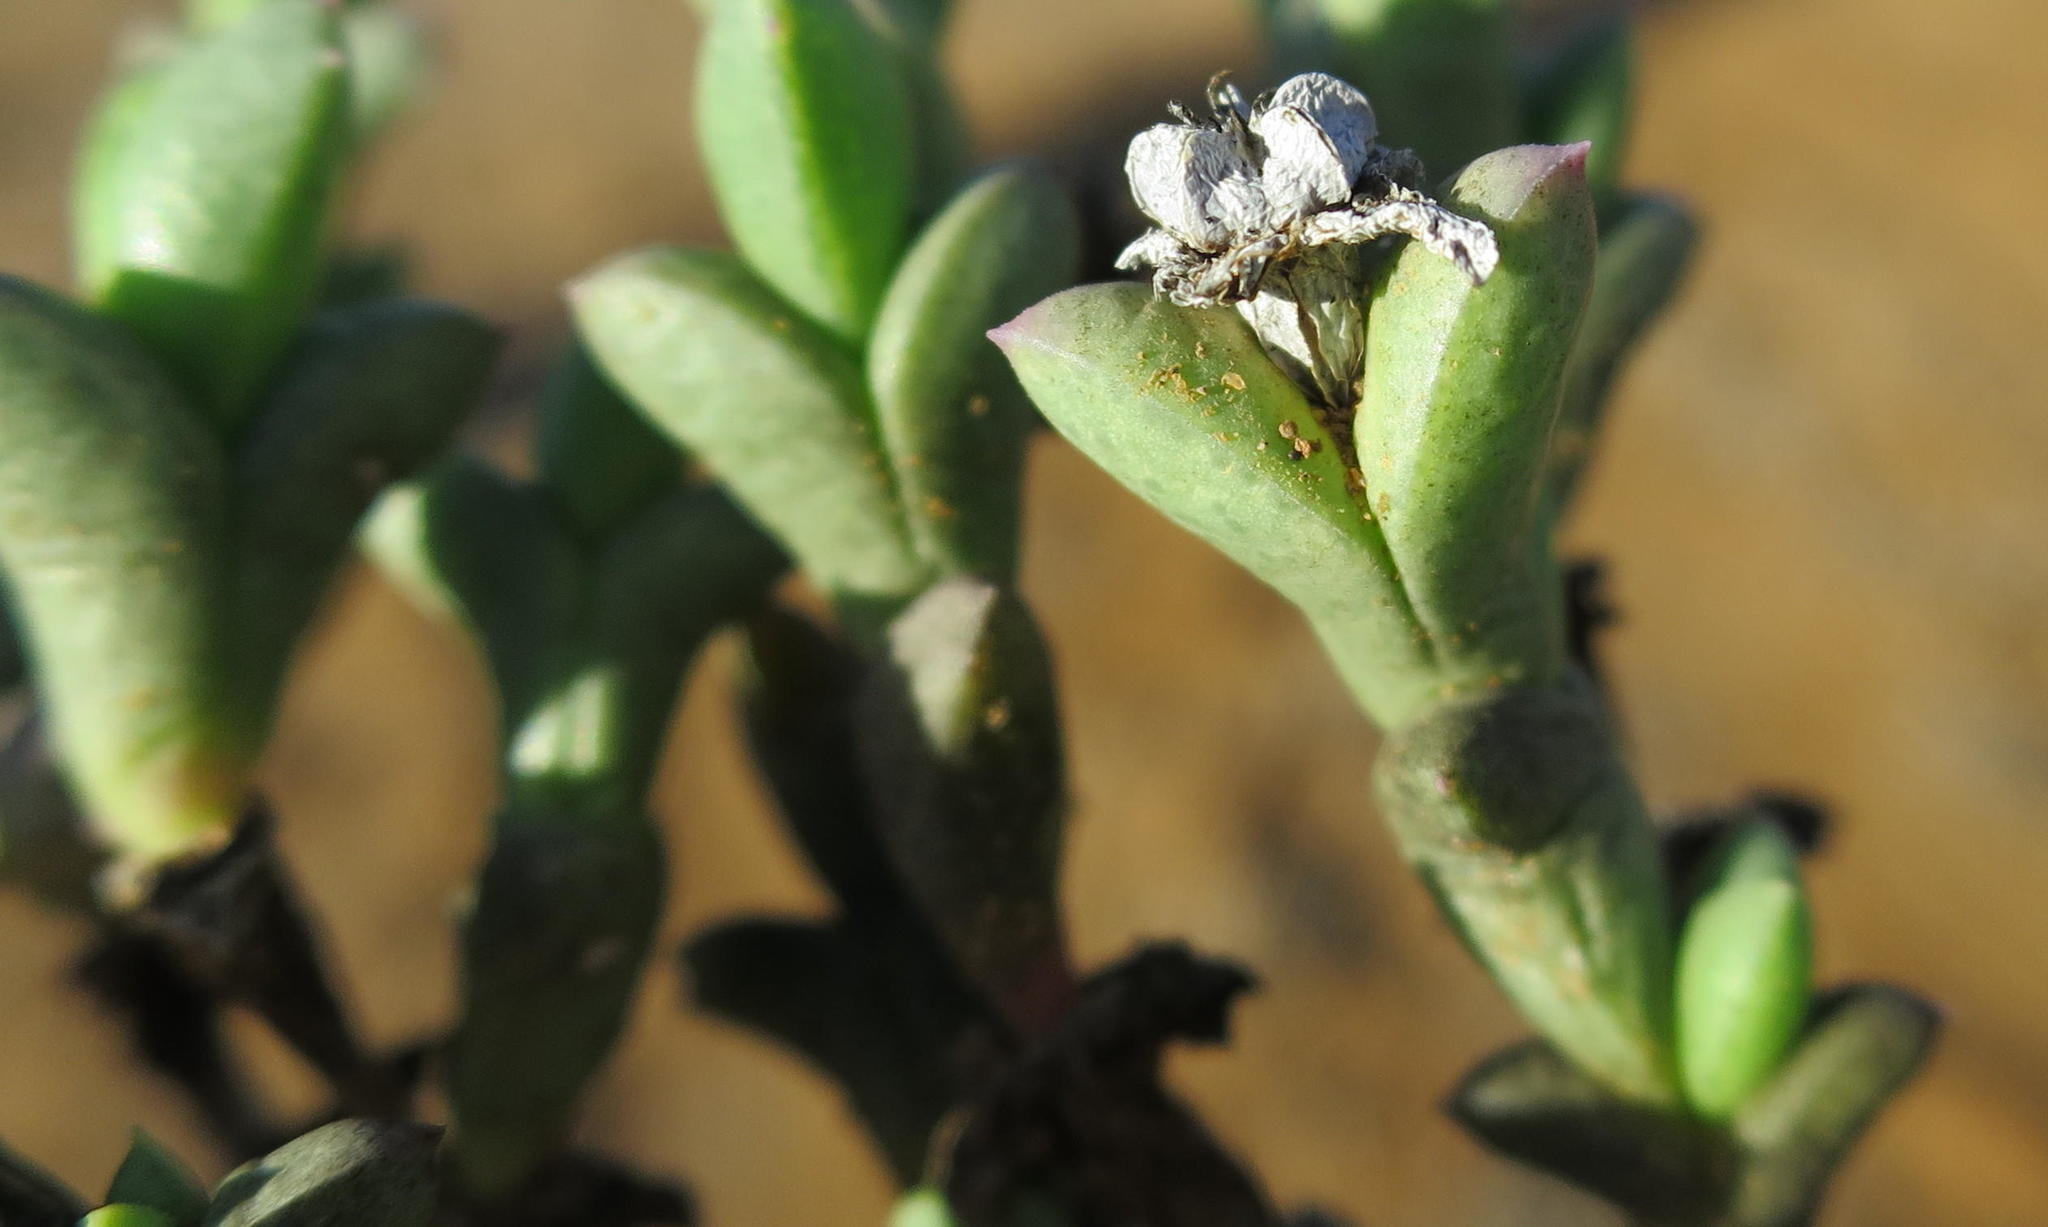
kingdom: Plantae
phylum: Tracheophyta
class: Magnoliopsida
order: Caryophyllales
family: Aizoaceae
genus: Ruschia
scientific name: Ruschia approximata
